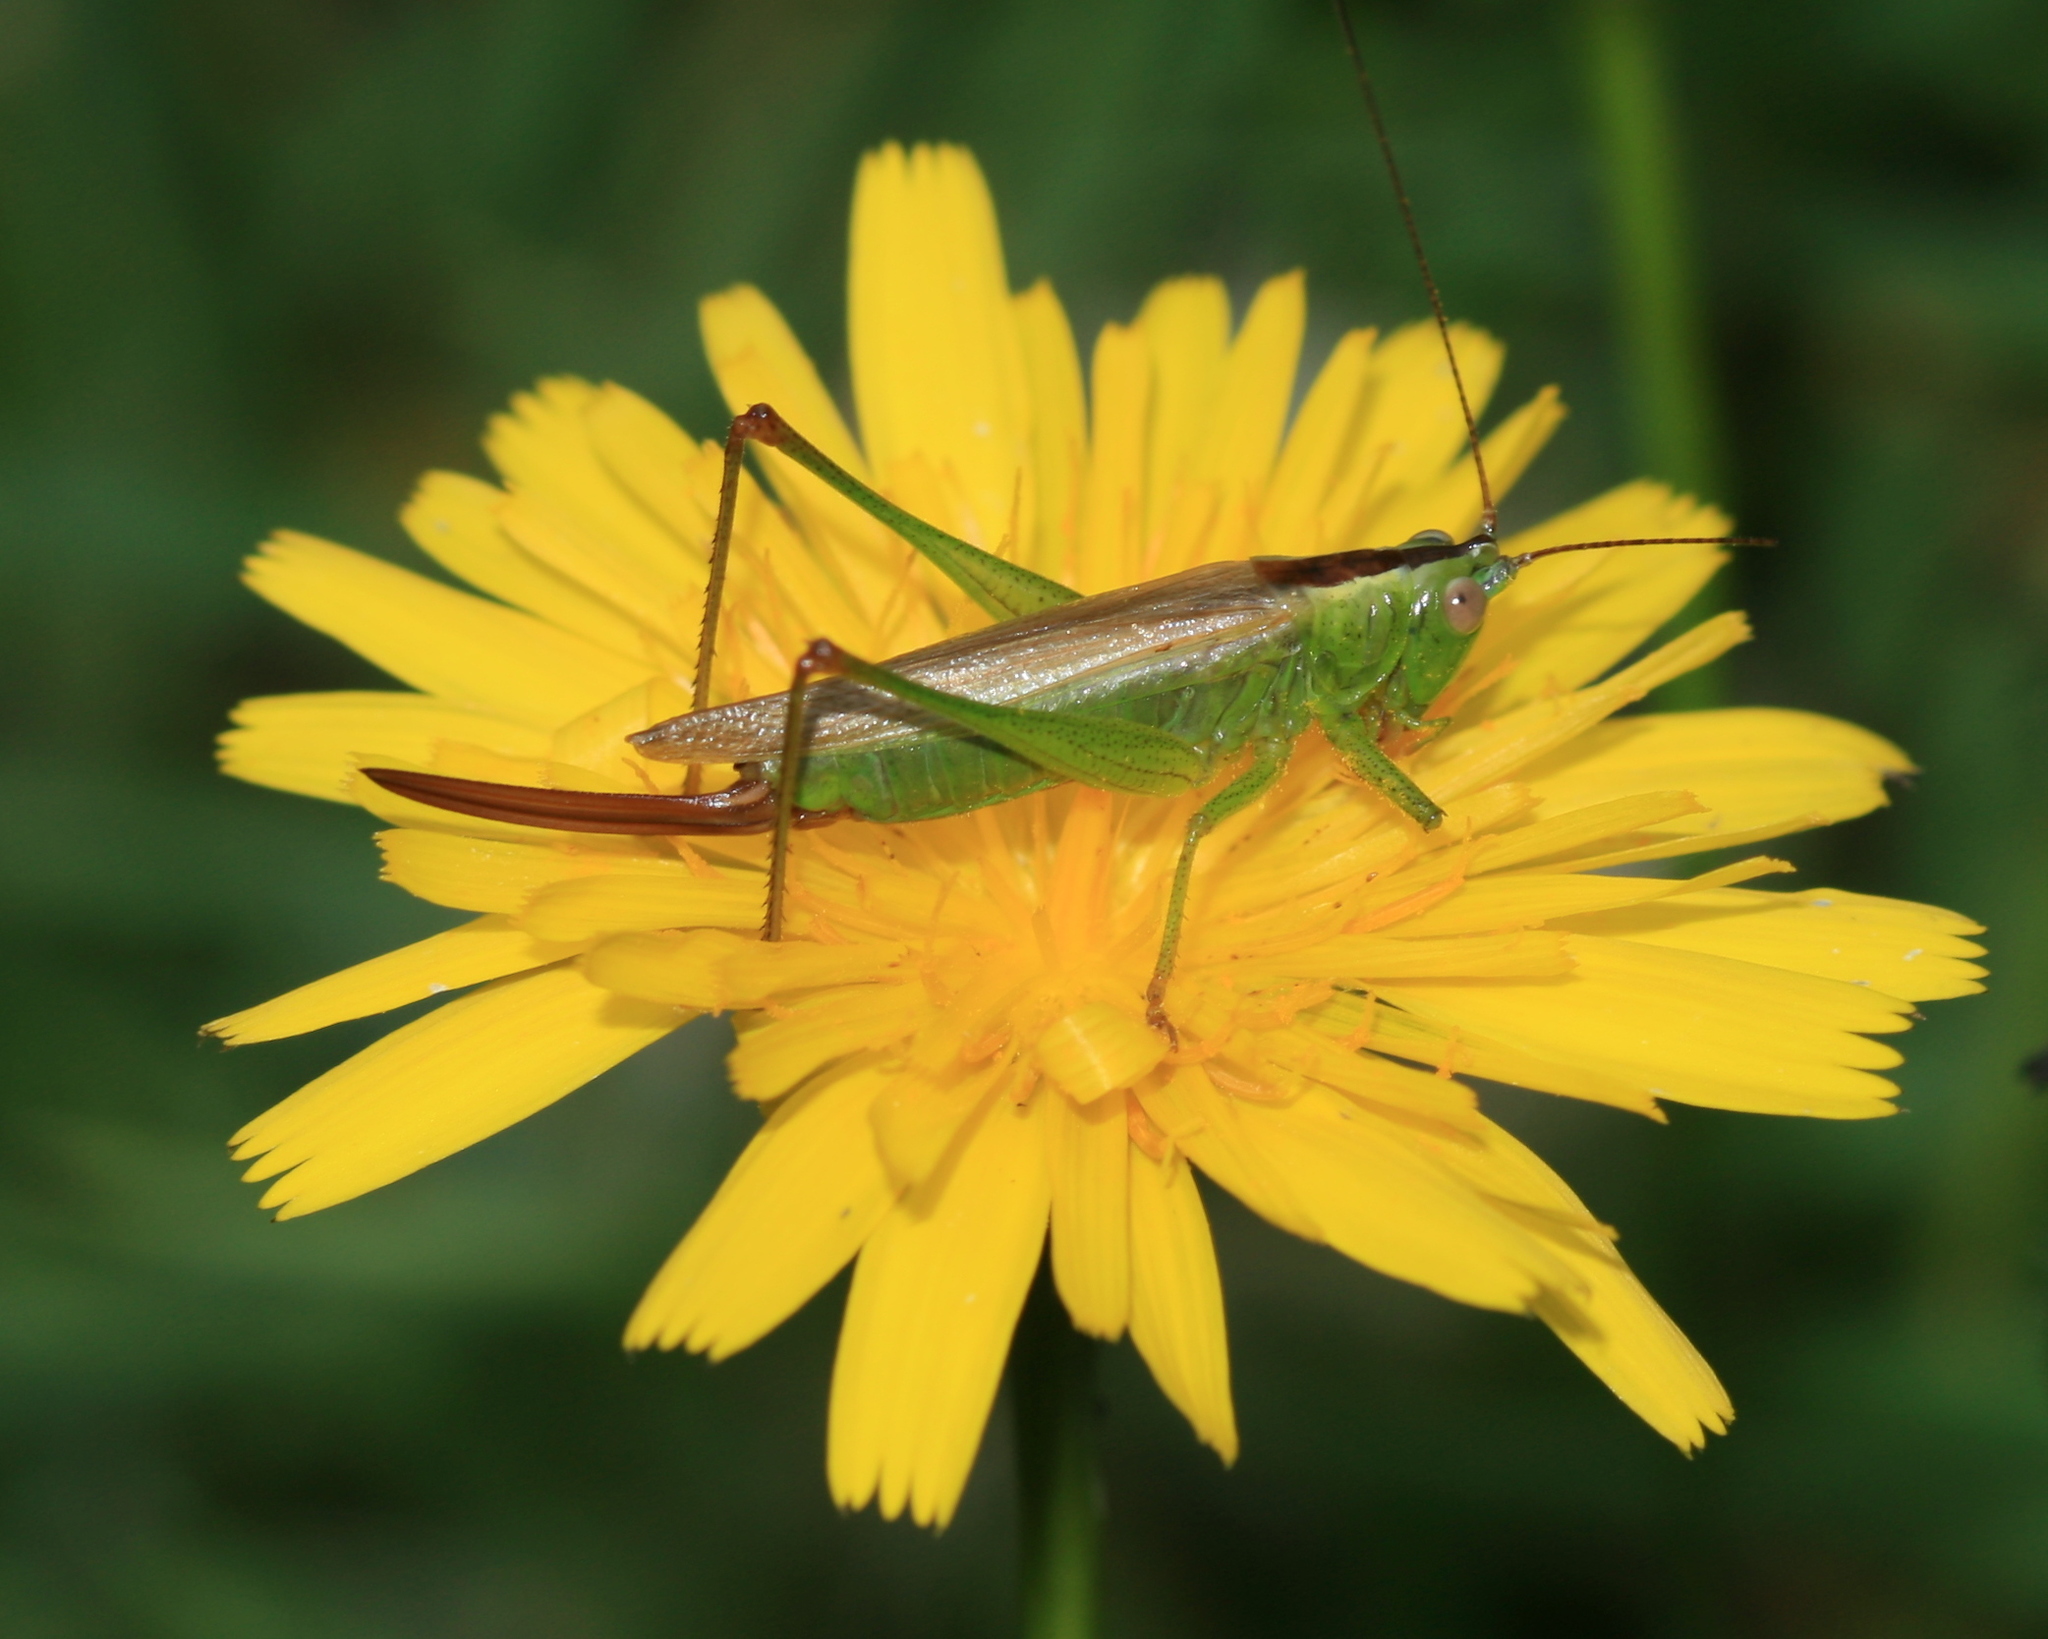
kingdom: Animalia
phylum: Arthropoda
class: Insecta
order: Orthoptera
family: Tettigoniidae
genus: Conocephalus
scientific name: Conocephalus fuscus
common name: Long-winged conehead
